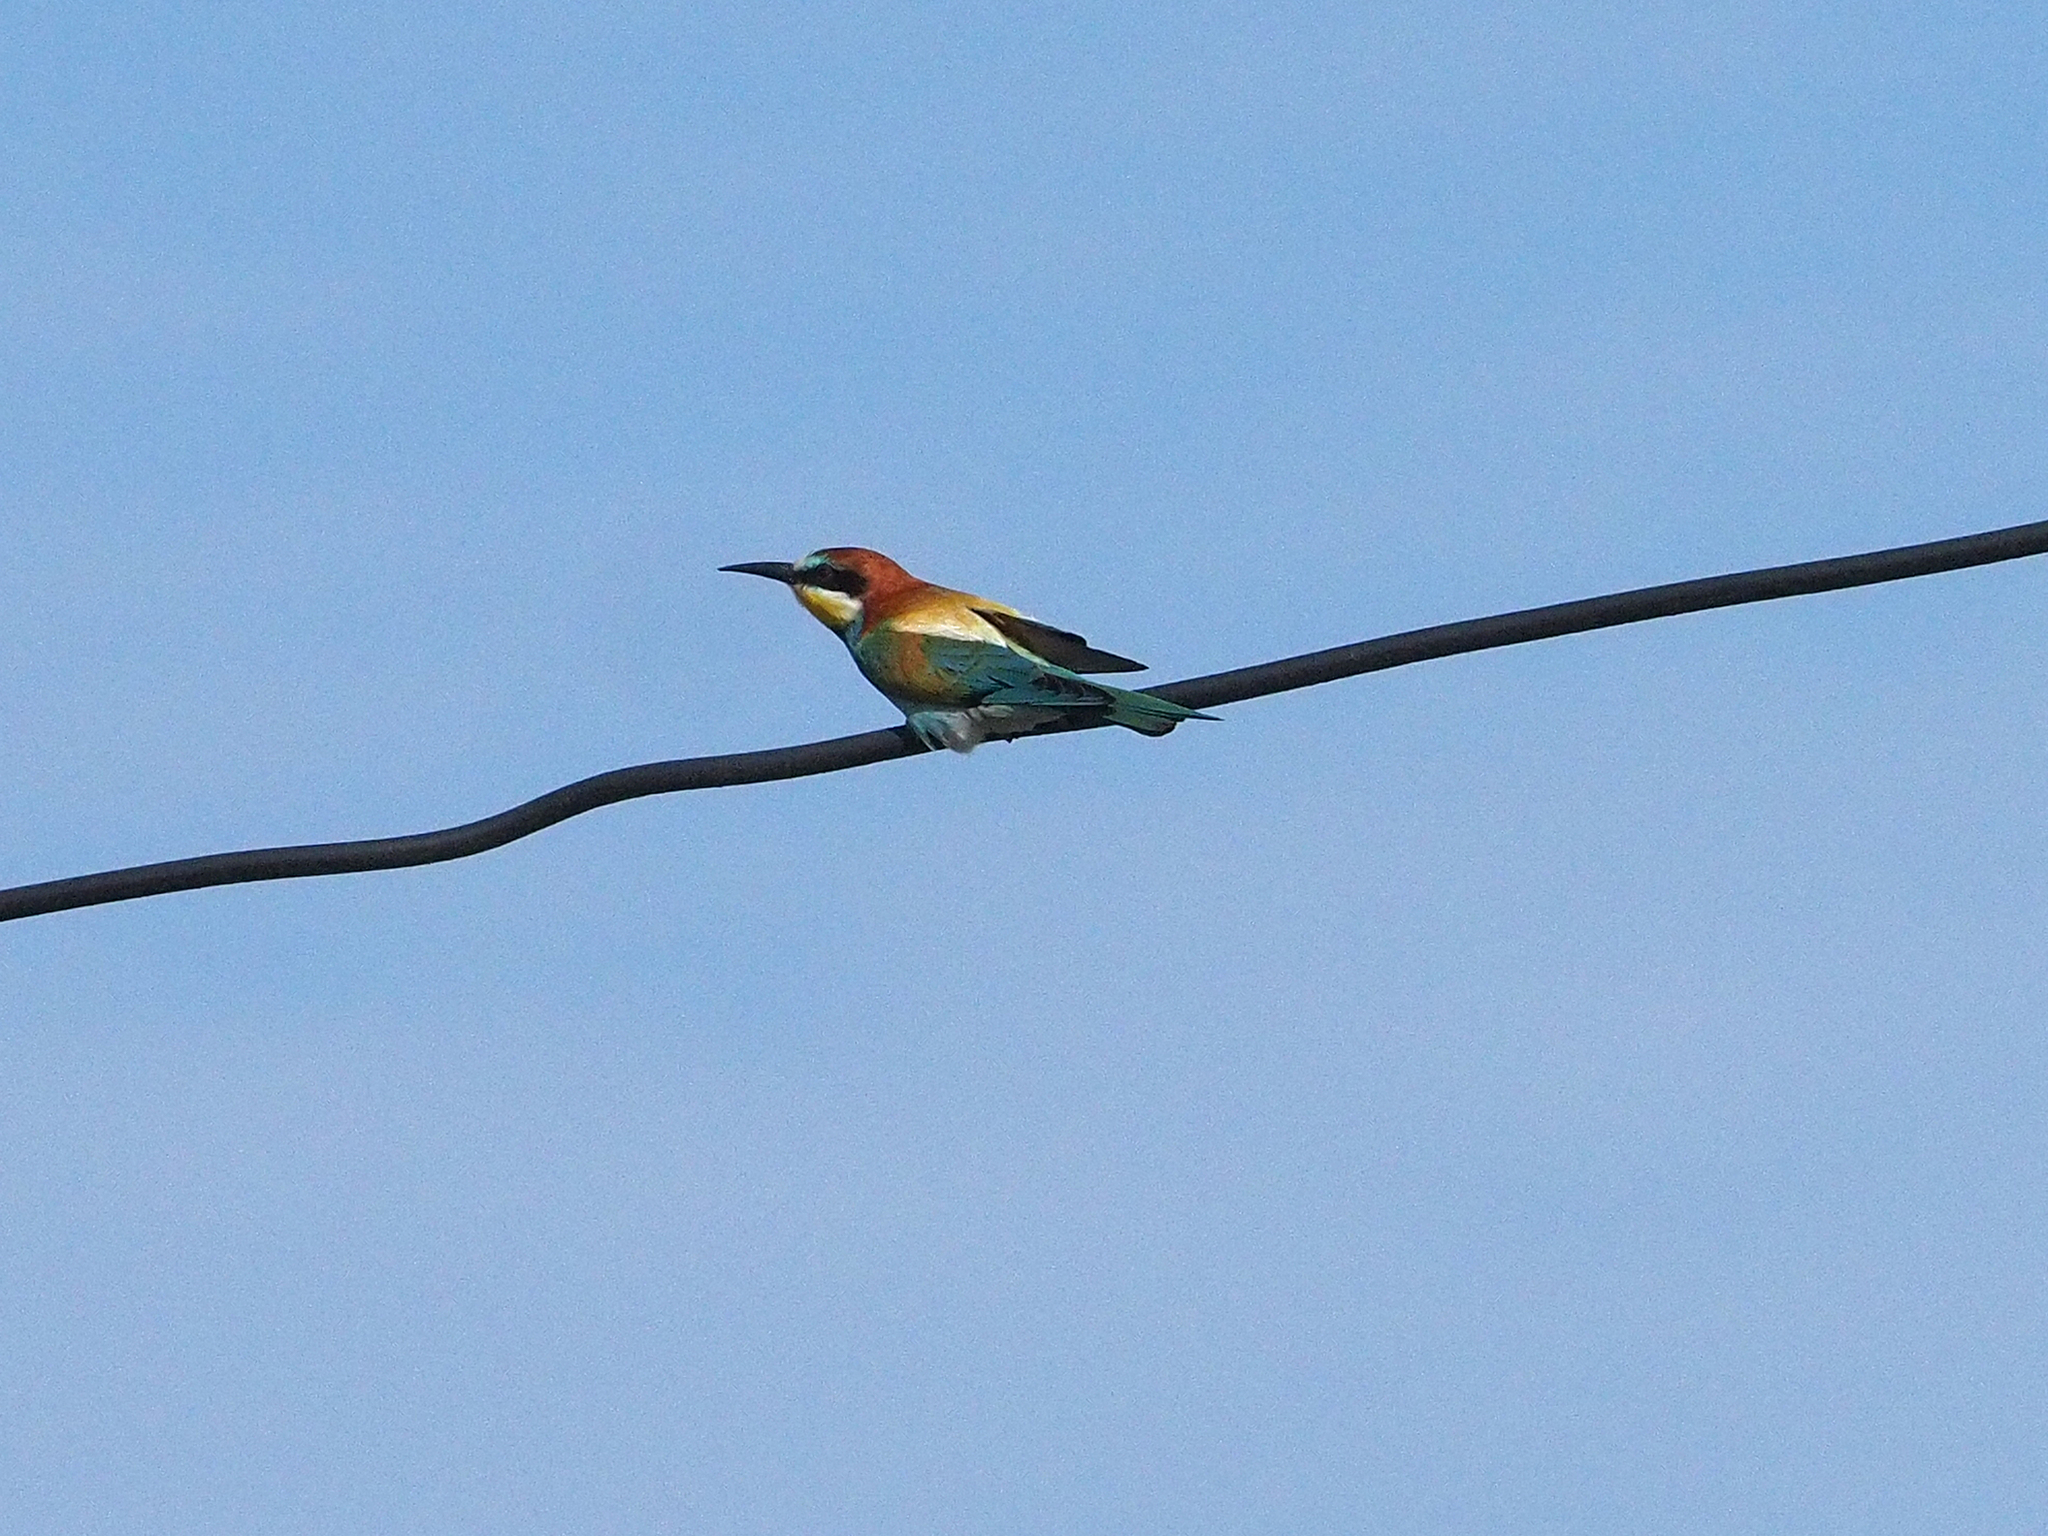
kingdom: Animalia
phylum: Chordata
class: Aves
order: Coraciiformes
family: Meropidae
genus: Merops
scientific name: Merops apiaster
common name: European bee-eater
